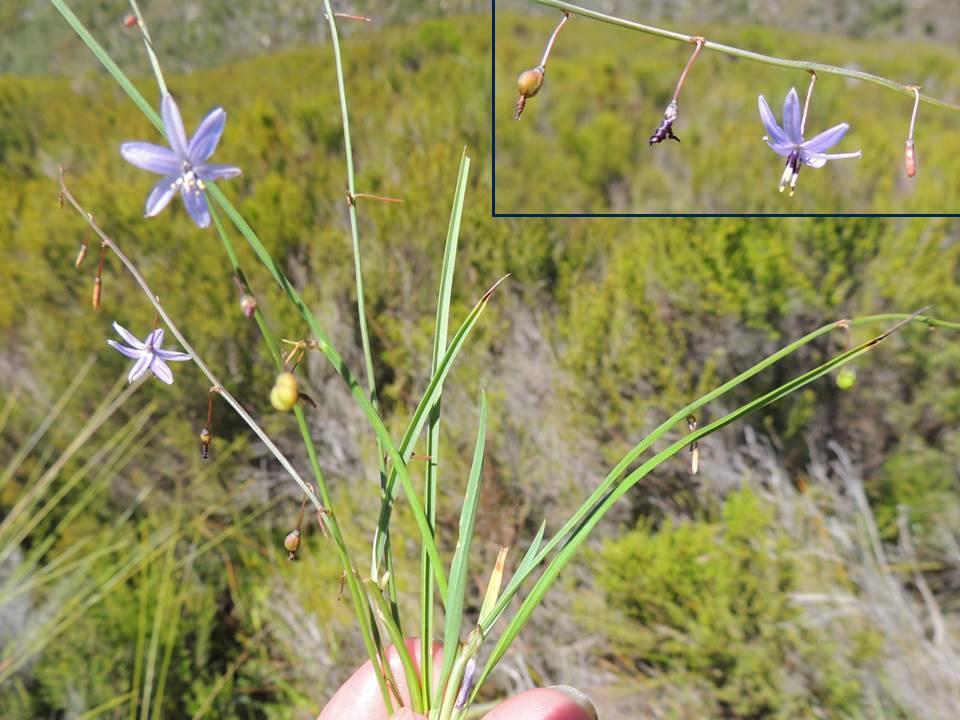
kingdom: Plantae
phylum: Tracheophyta
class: Liliopsida
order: Asparagales
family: Asphodelaceae
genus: Caesia
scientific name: Caesia contorta
